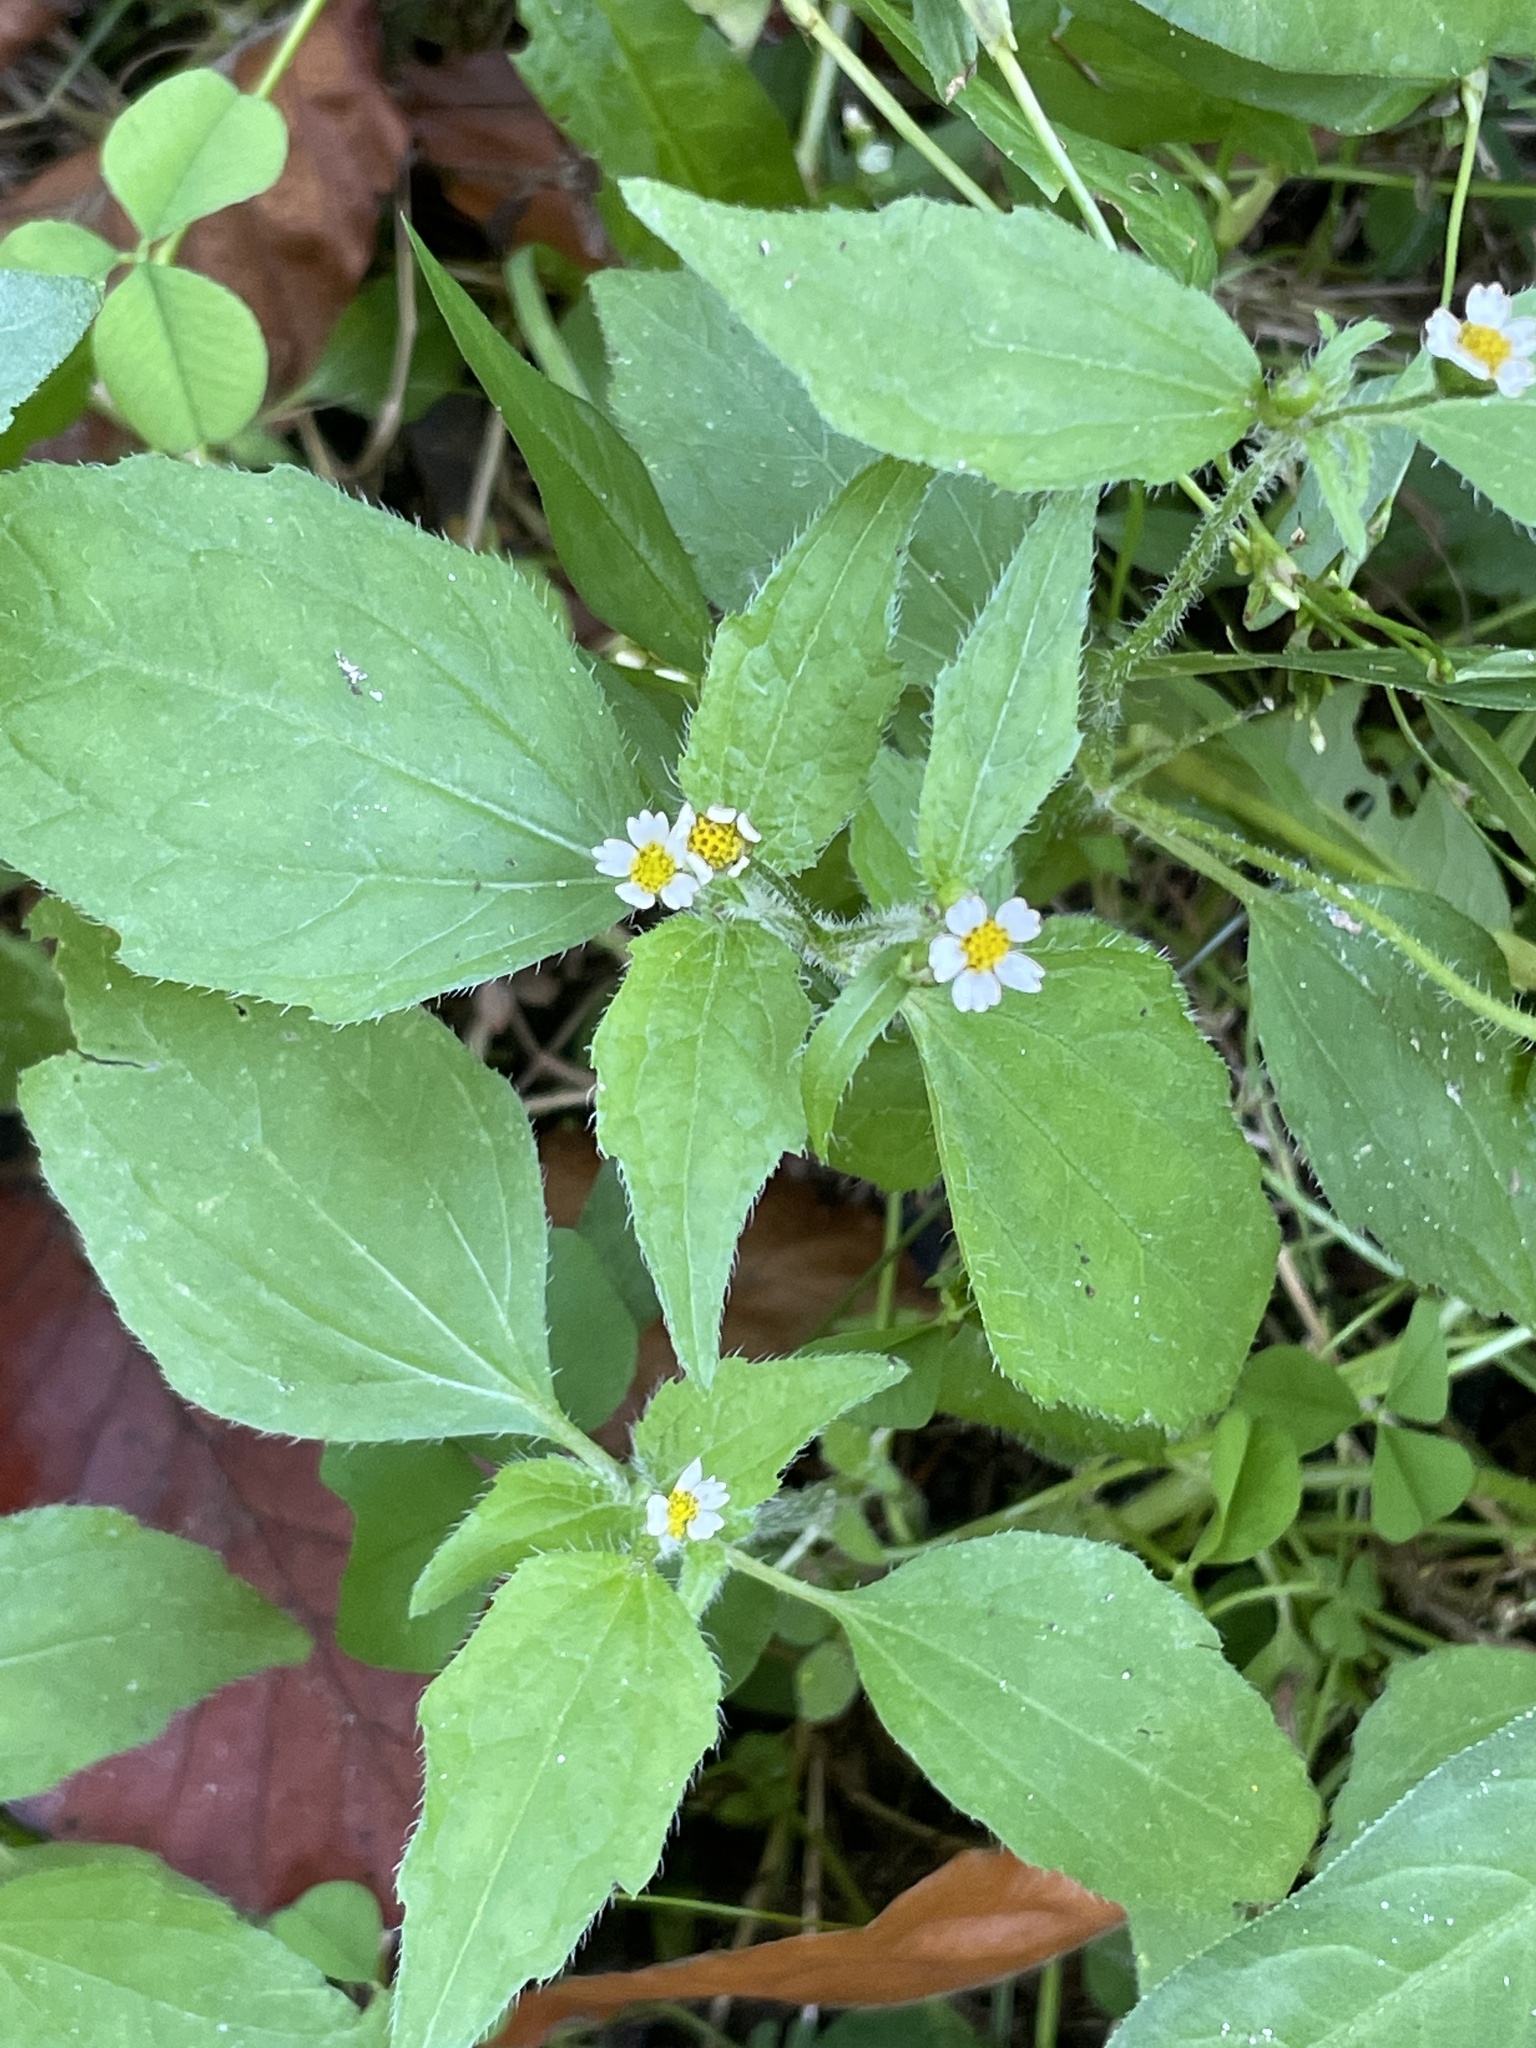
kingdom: Plantae
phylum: Tracheophyta
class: Magnoliopsida
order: Asterales
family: Asteraceae
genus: Galinsoga
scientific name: Galinsoga quadriradiata
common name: Shaggy soldier
